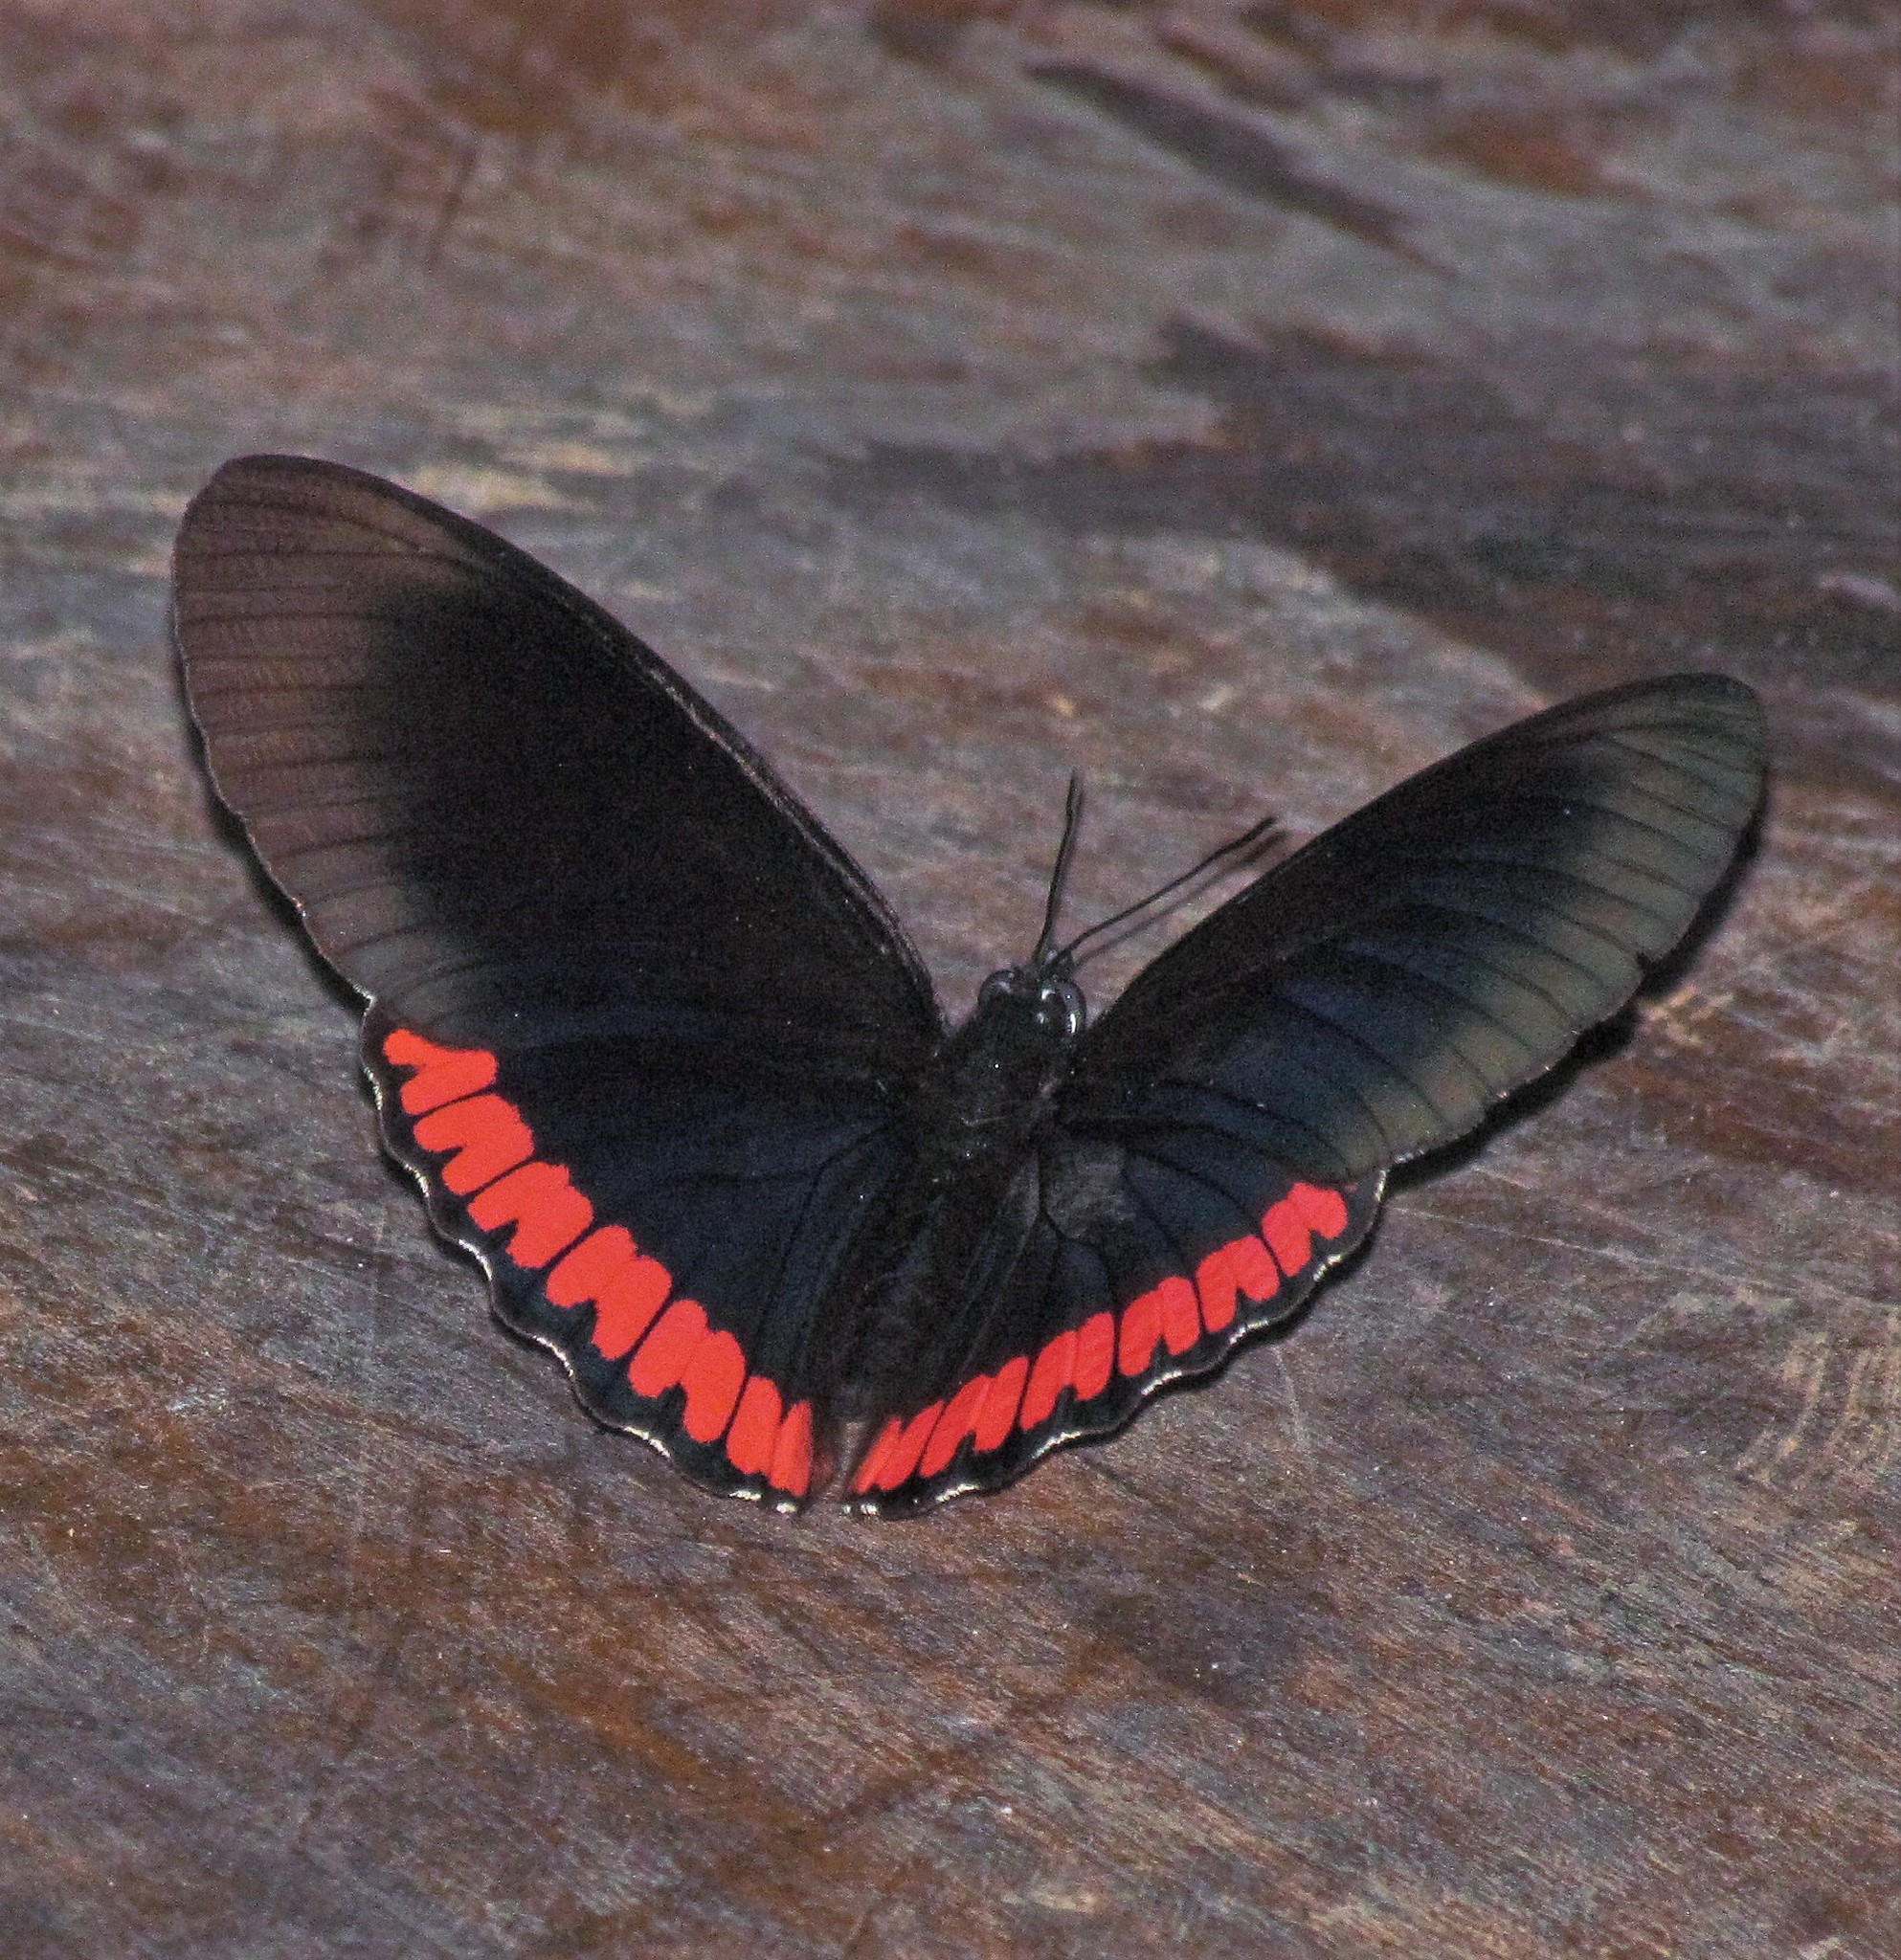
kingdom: Animalia
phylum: Arthropoda
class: Insecta
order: Lepidoptera
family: Sesiidae
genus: Sesia
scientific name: Sesia Biblis hyperia
